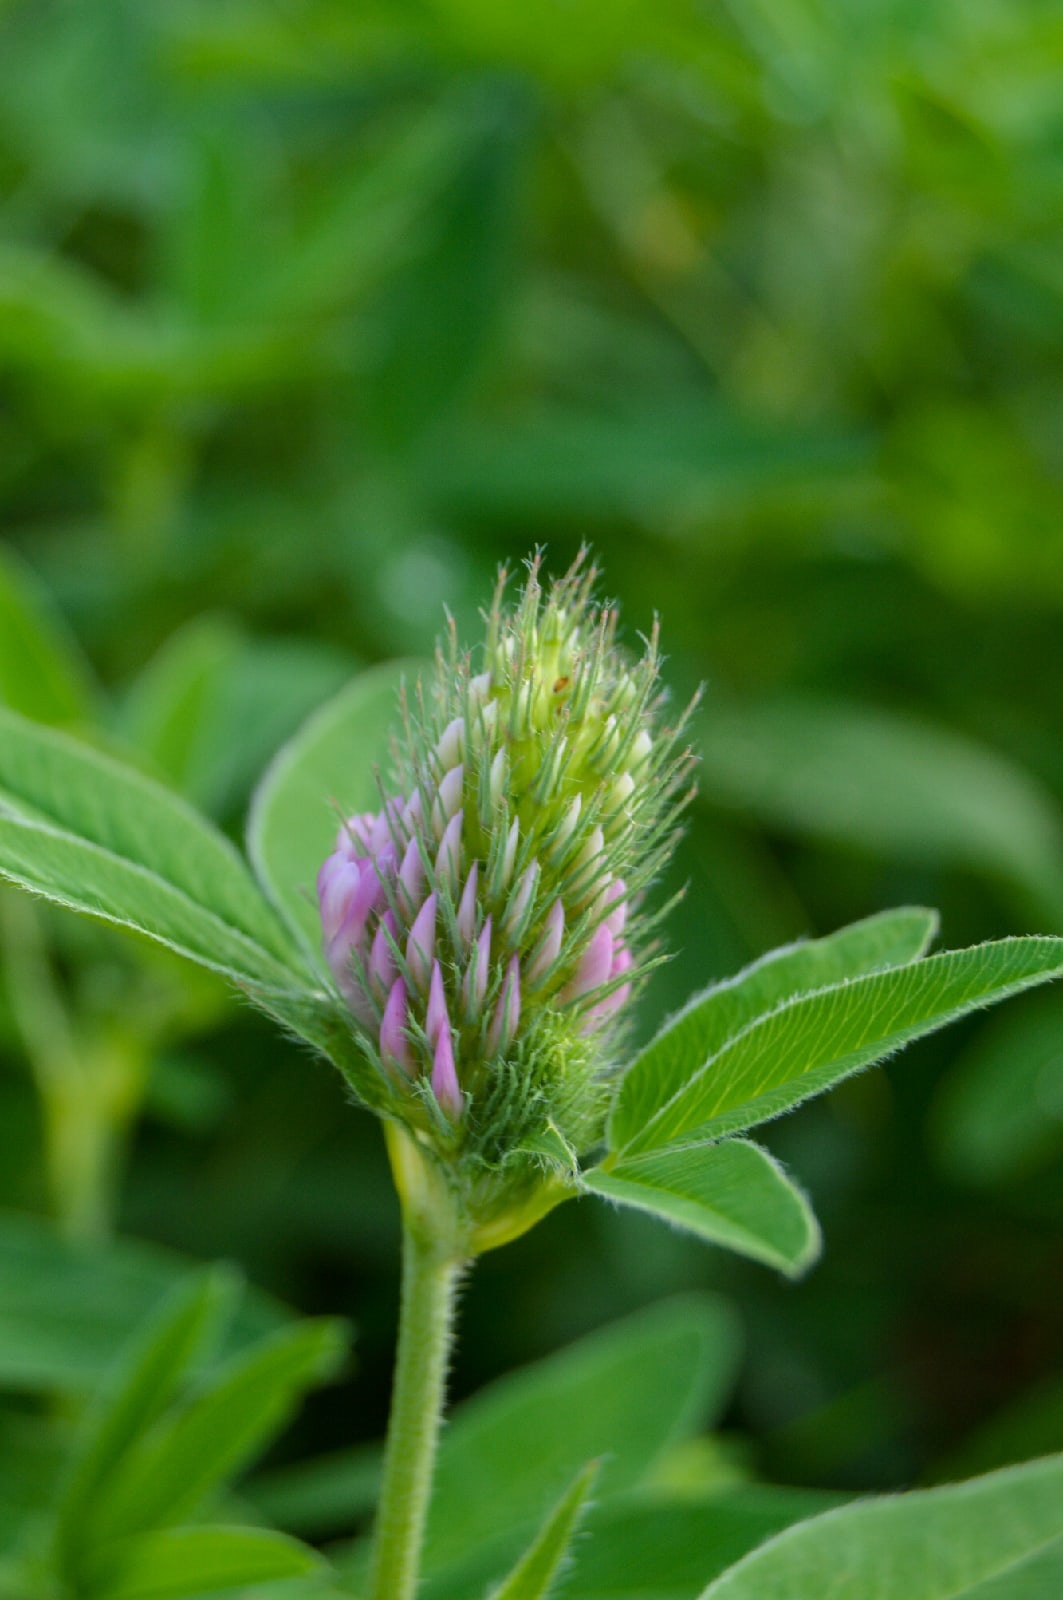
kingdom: Plantae
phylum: Tracheophyta
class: Magnoliopsida
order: Fabales
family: Fabaceae
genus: Trifolium
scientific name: Trifolium pratense
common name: Red clover
